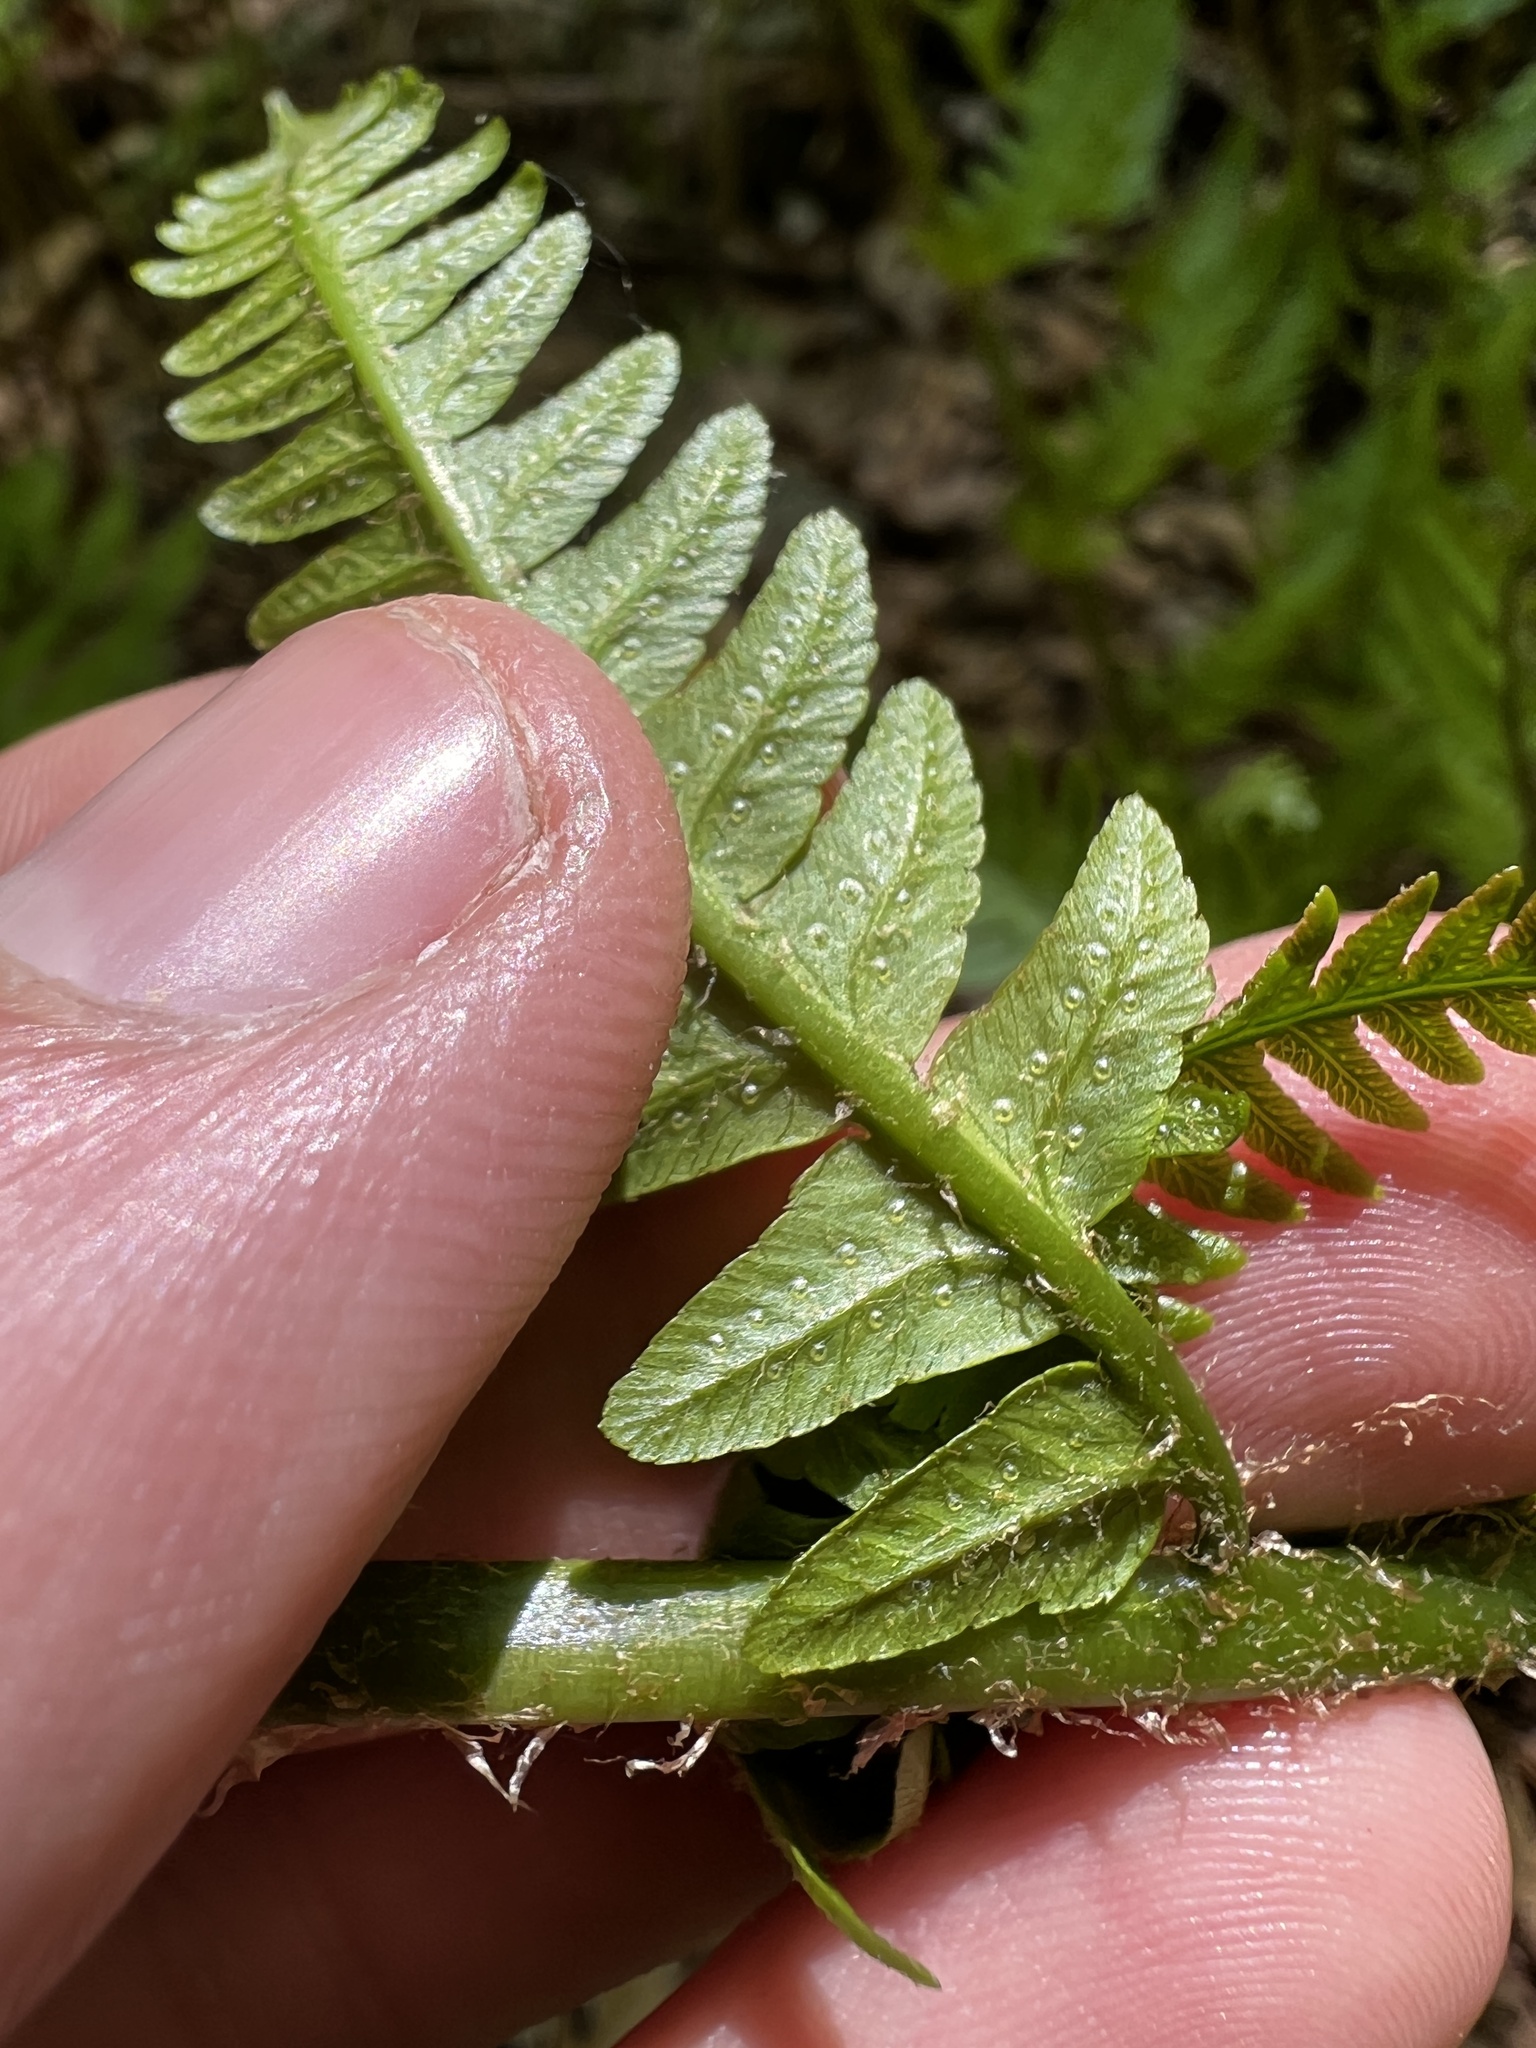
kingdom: Plantae
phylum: Tracheophyta
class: Polypodiopsida
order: Polypodiales
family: Dryopteridaceae
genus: Dryopteris
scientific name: Dryopteris goldieana
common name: Goldie's fern
